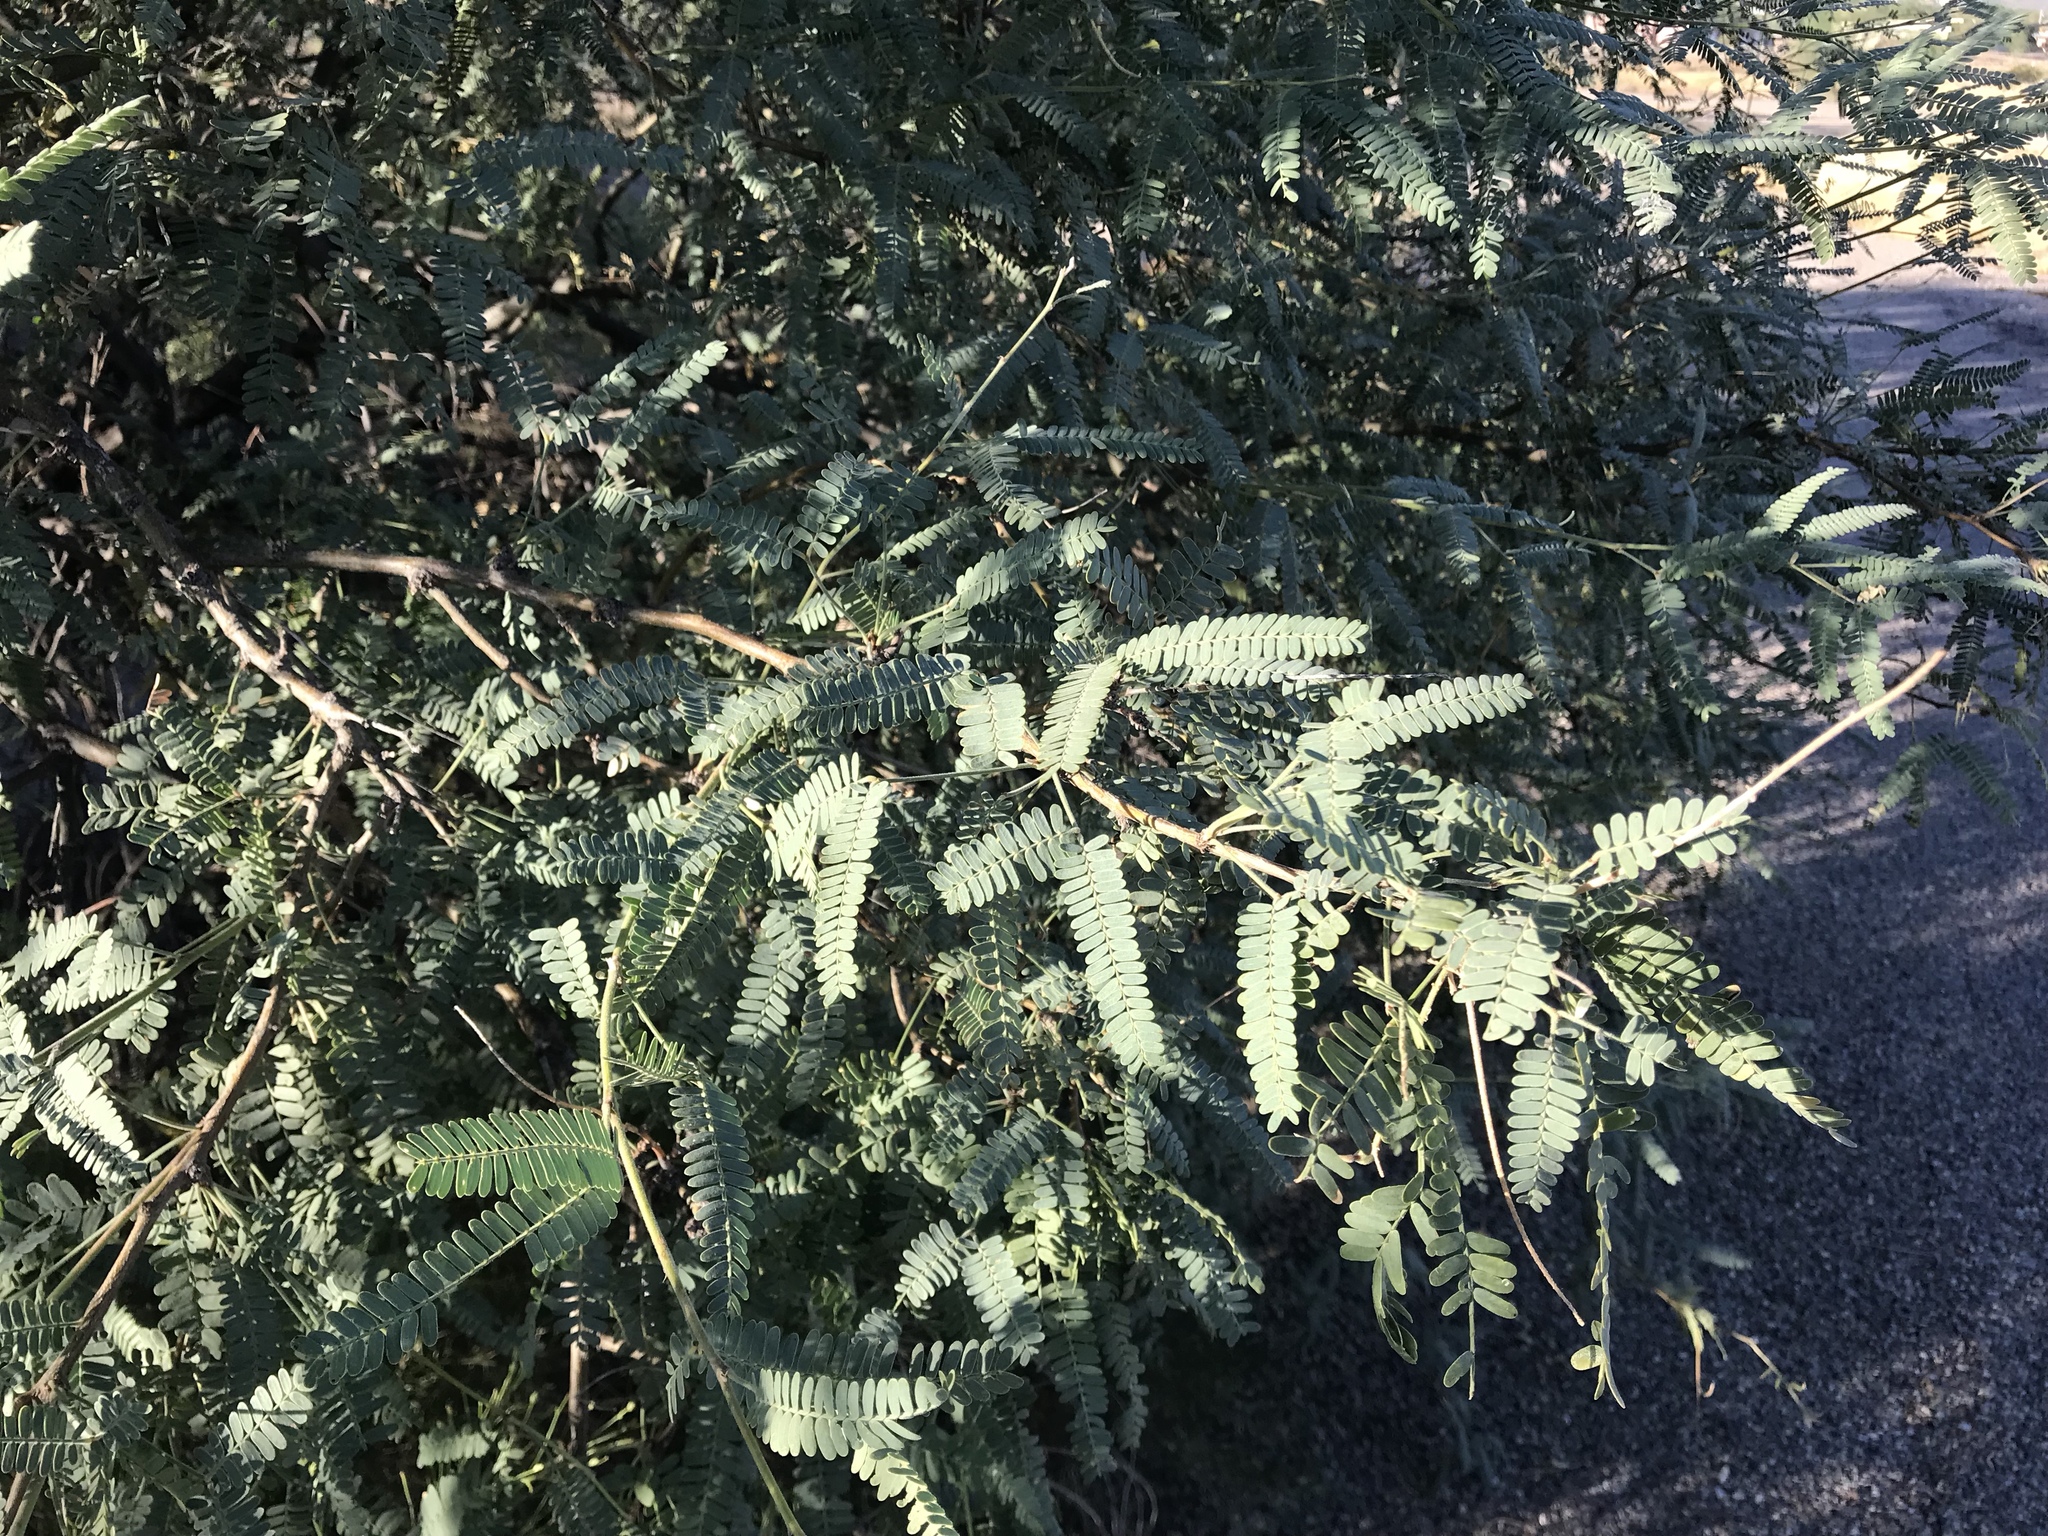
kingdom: Plantae
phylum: Tracheophyta
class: Magnoliopsida
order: Fabales
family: Fabaceae
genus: Prosopis
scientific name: Prosopis velutina
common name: Velvet mesquite
